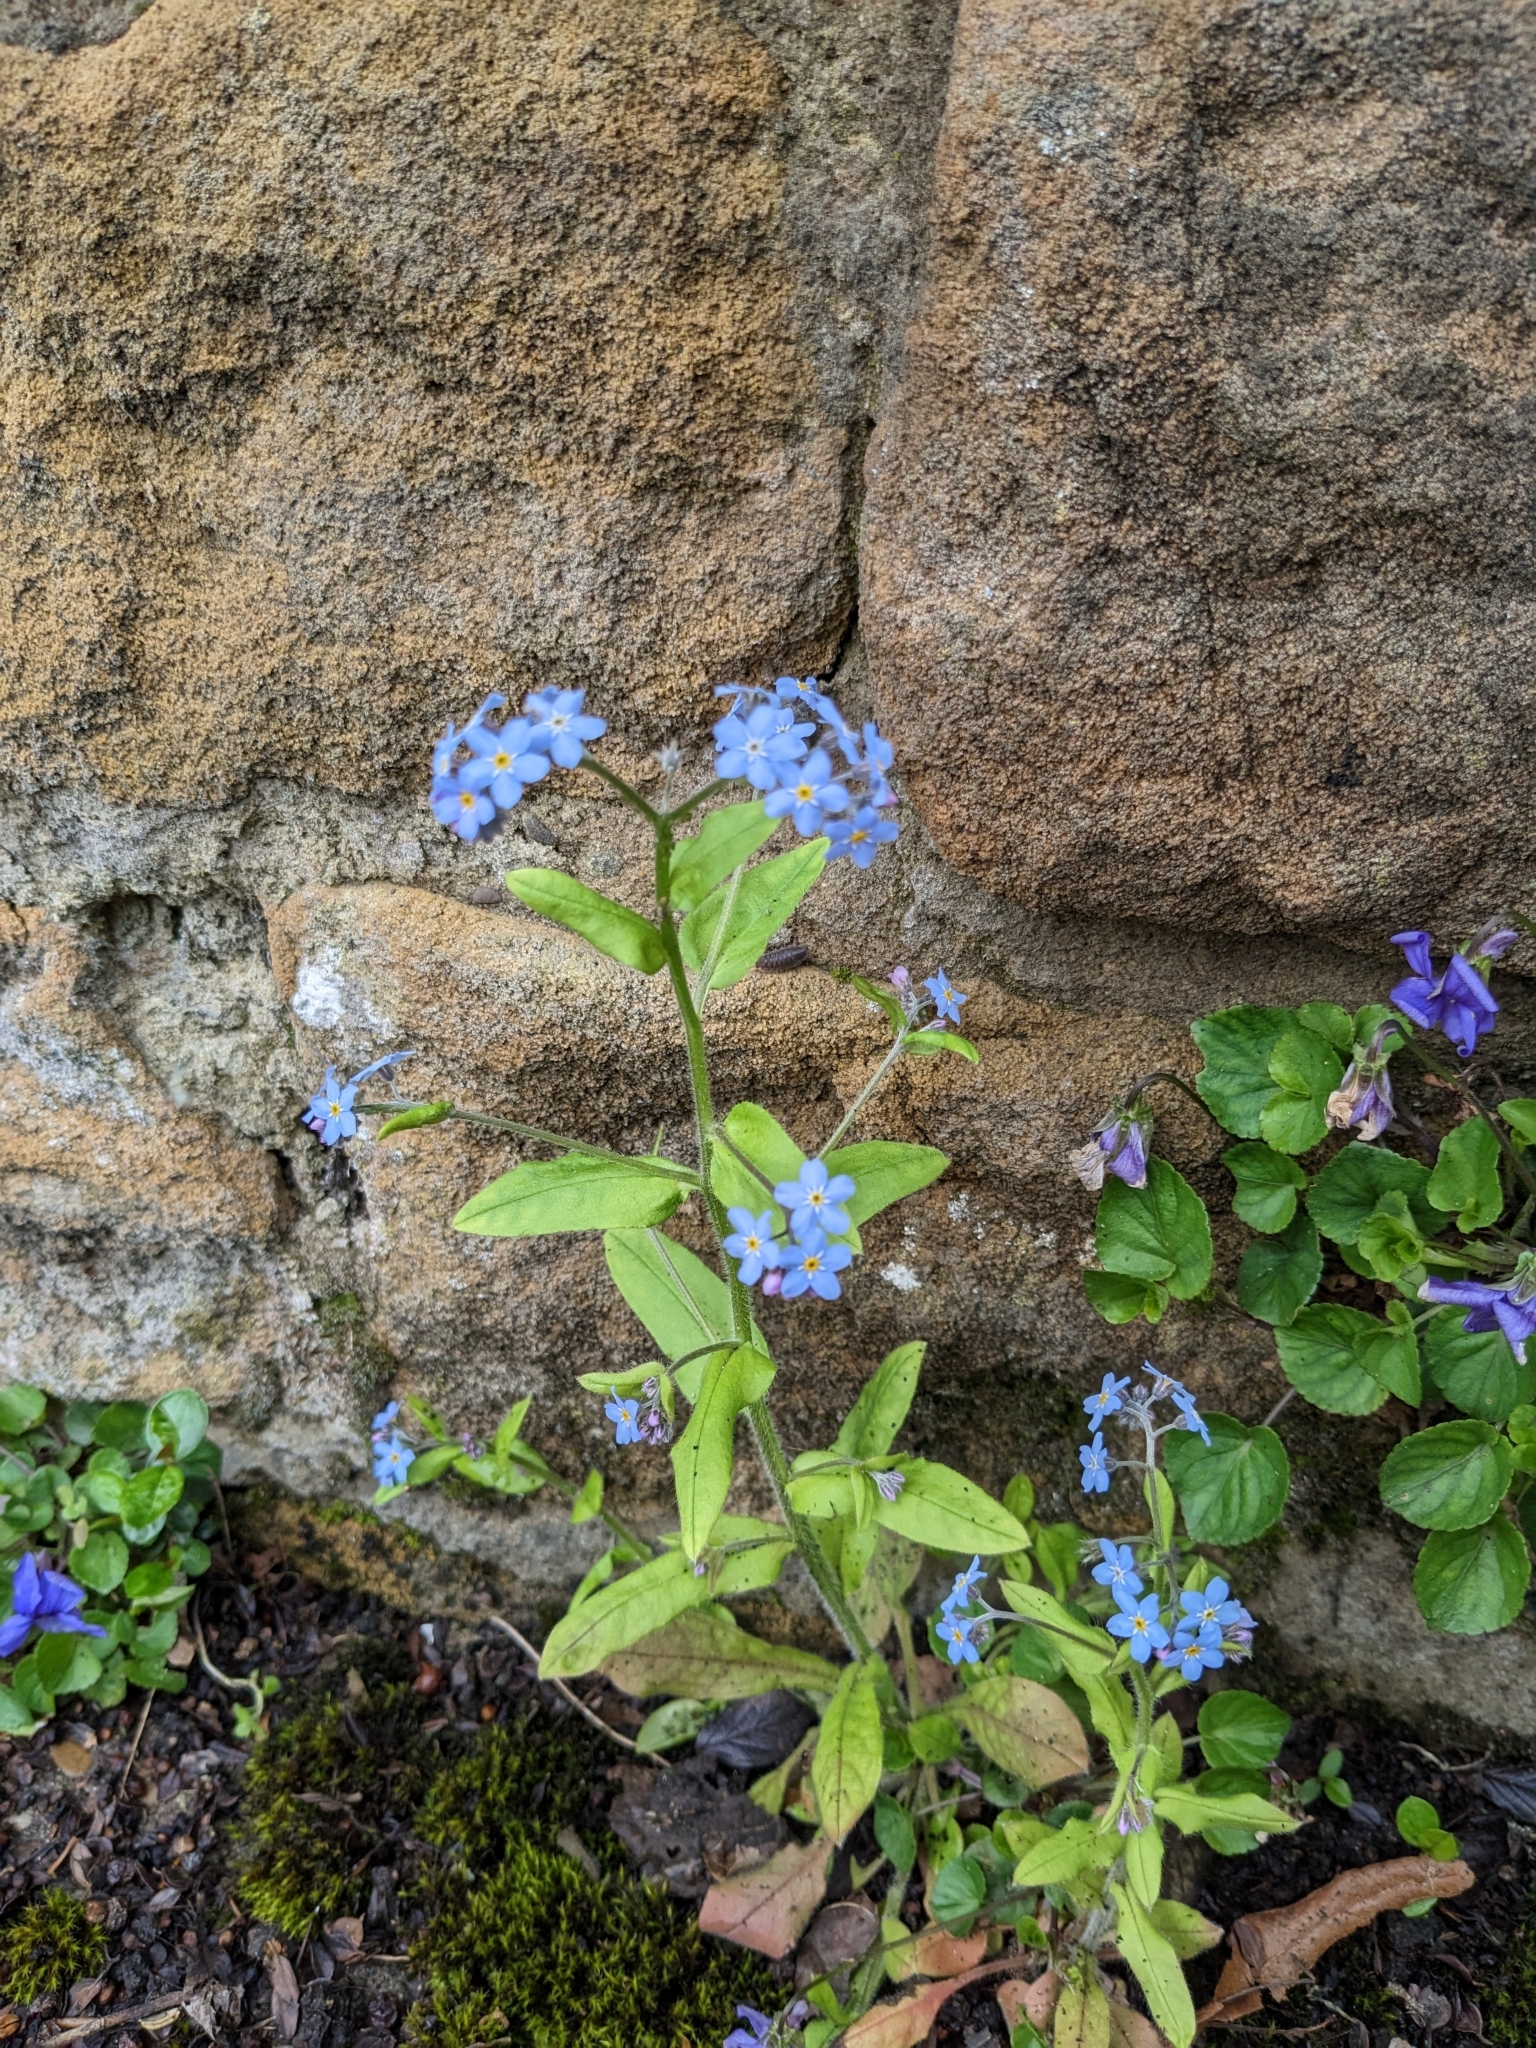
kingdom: Plantae
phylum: Tracheophyta
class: Magnoliopsida
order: Boraginales
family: Boraginaceae
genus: Myosotis
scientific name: Myosotis sylvatica
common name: Wood forget-me-not
